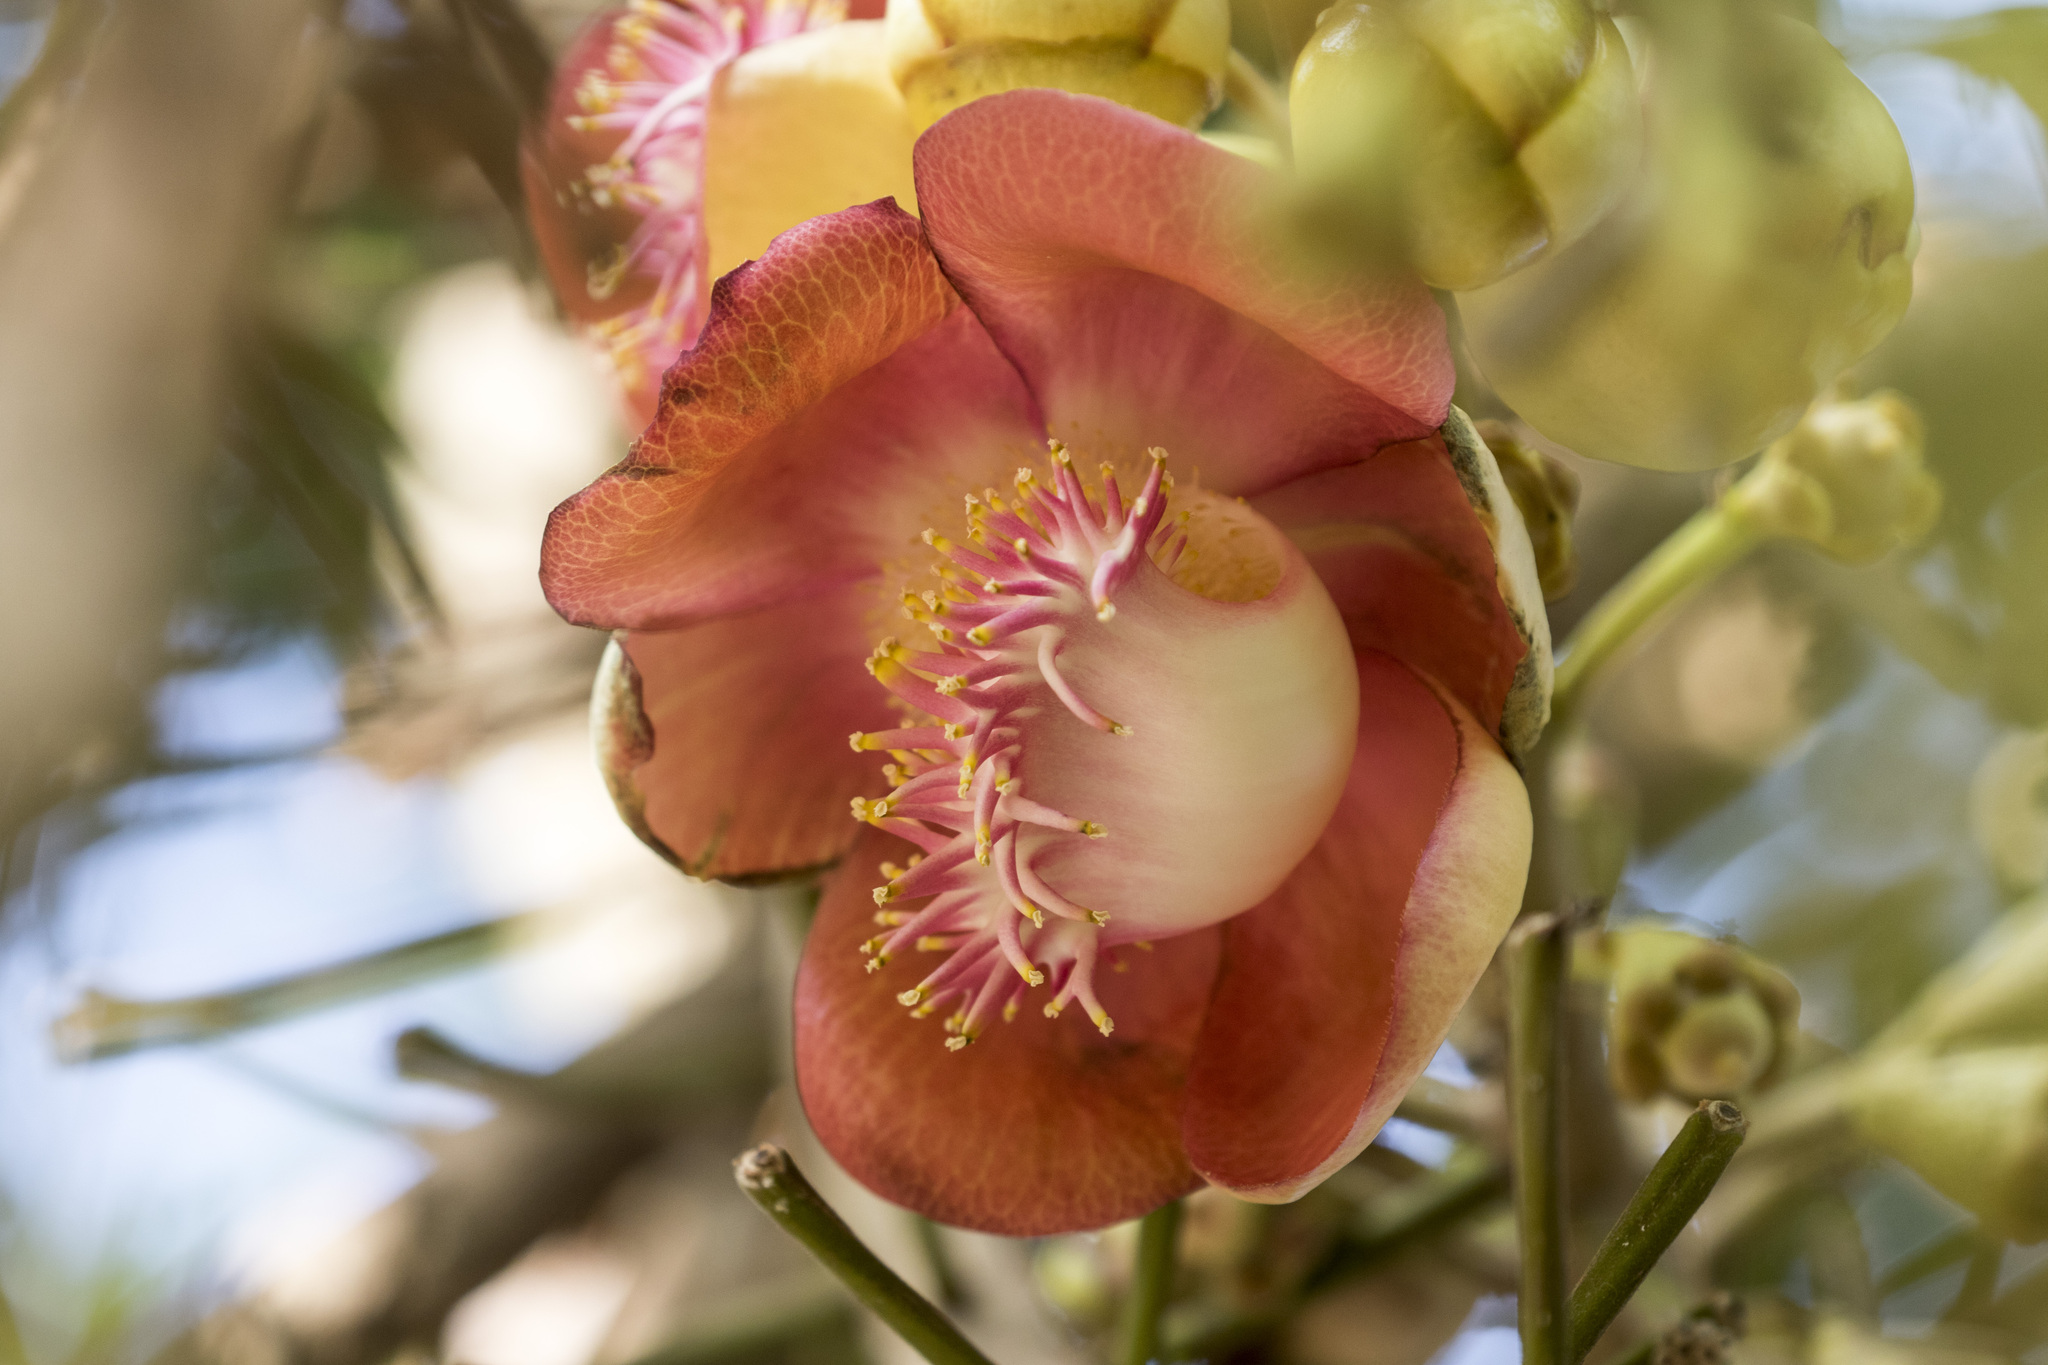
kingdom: Plantae
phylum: Tracheophyta
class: Magnoliopsida
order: Ericales
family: Lecythidaceae
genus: Couroupita
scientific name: Couroupita guianensis
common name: Cannonball tree
